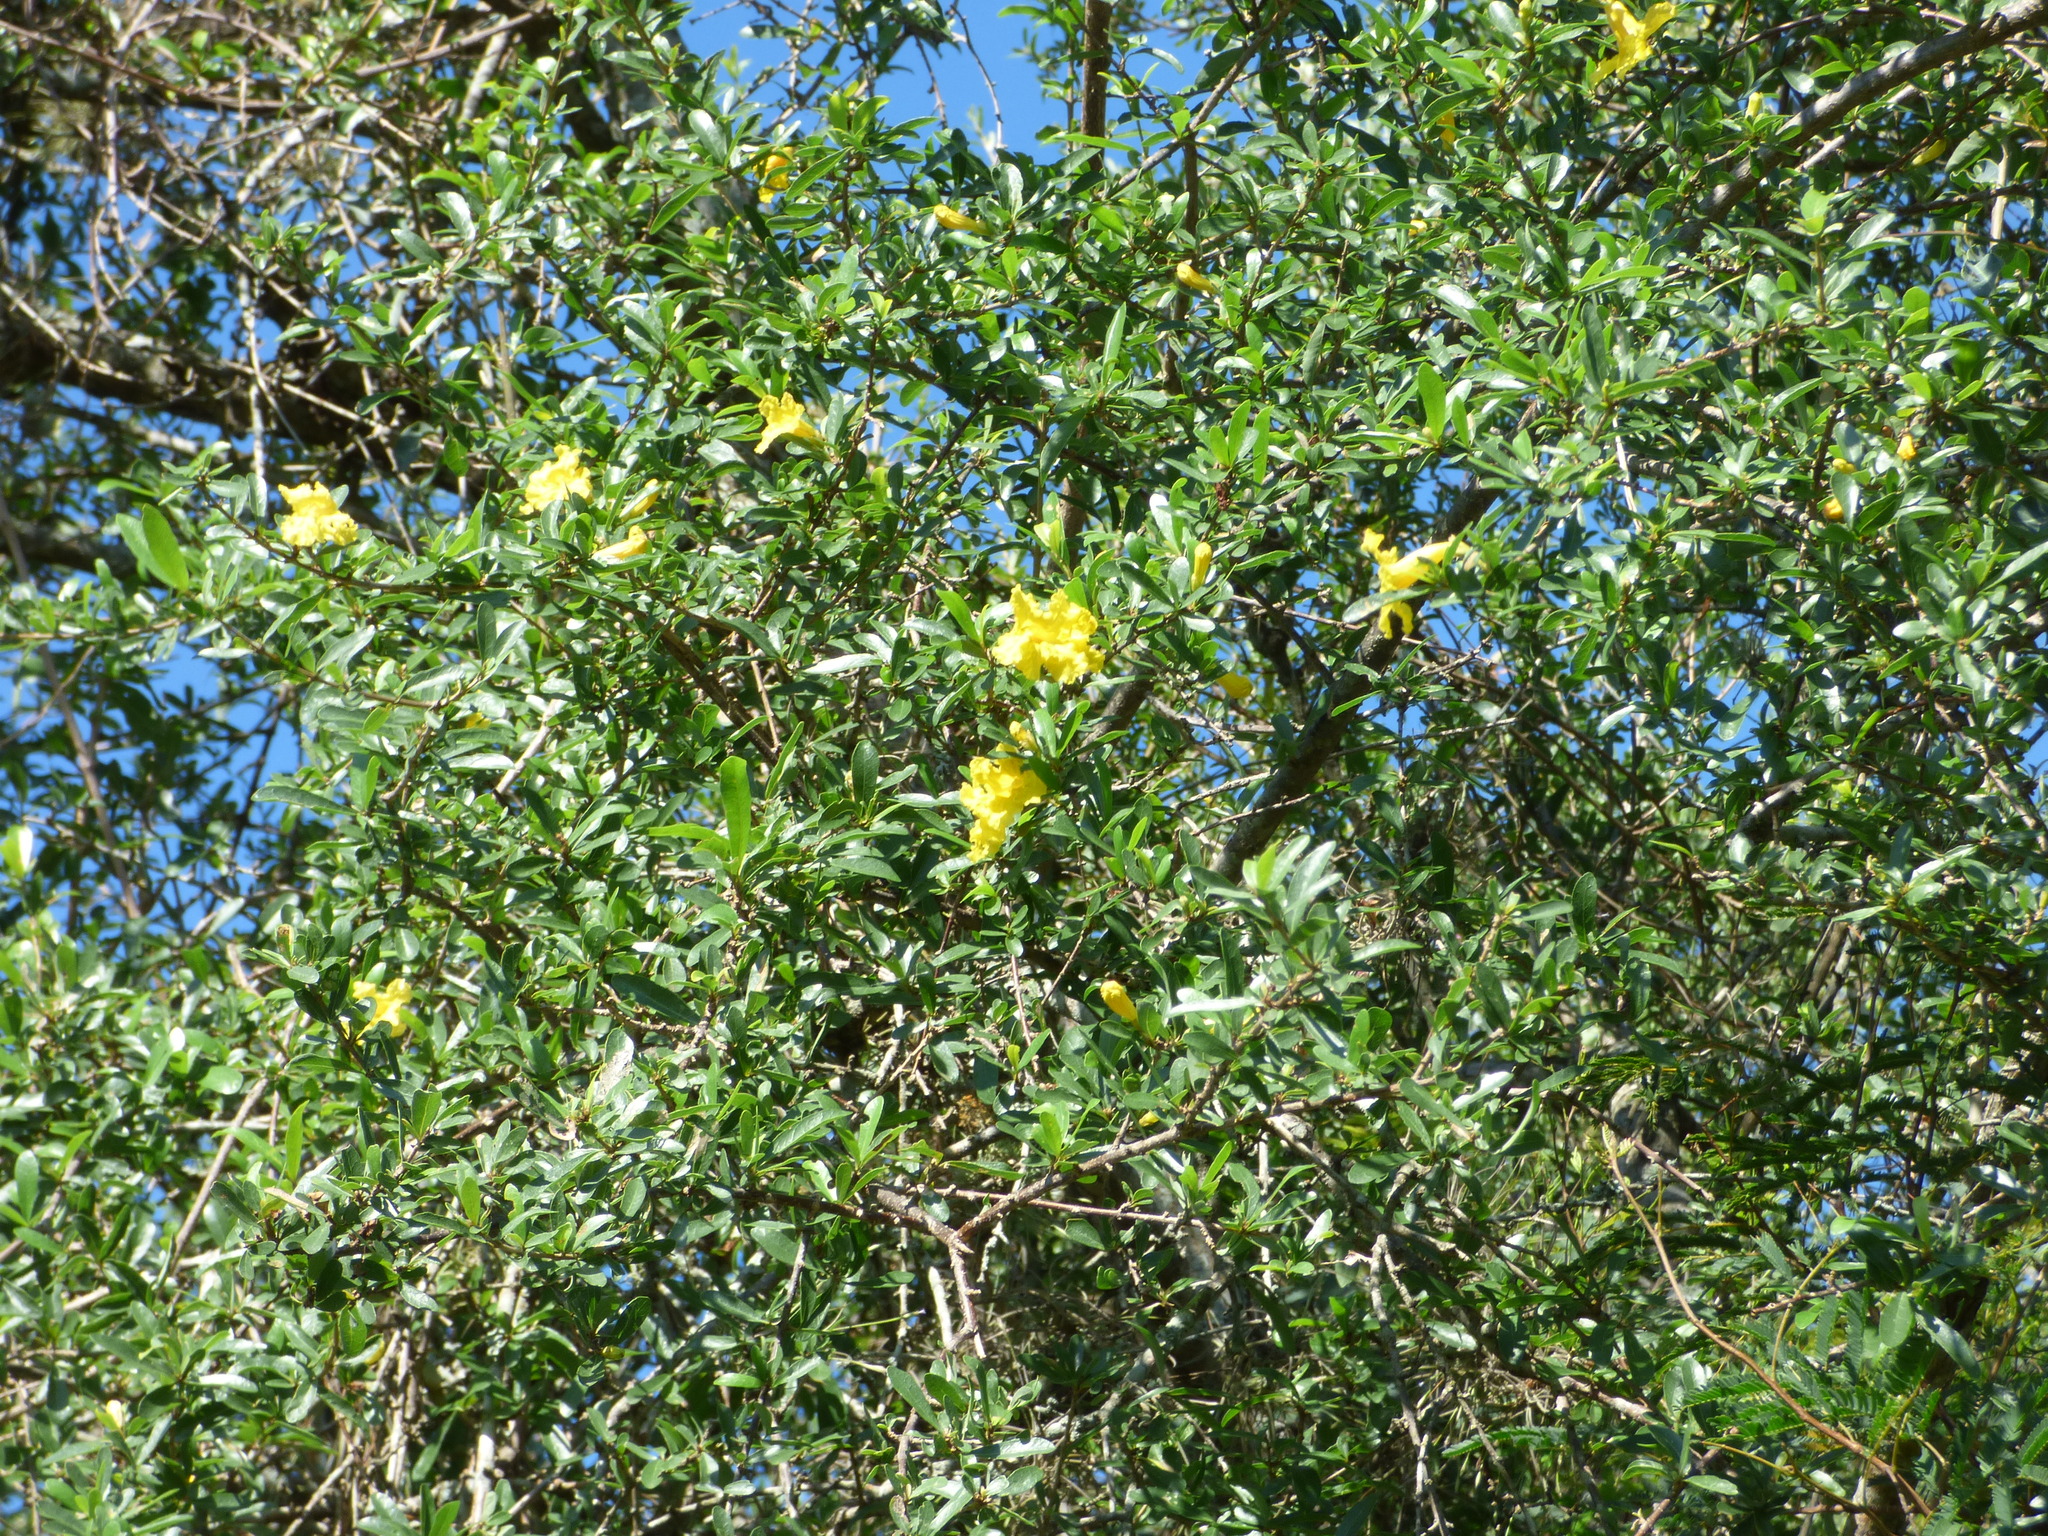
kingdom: Plantae
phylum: Tracheophyta
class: Magnoliopsida
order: Lamiales
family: Bignoniaceae
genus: Tabebuia
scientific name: Tabebuia nodosa
